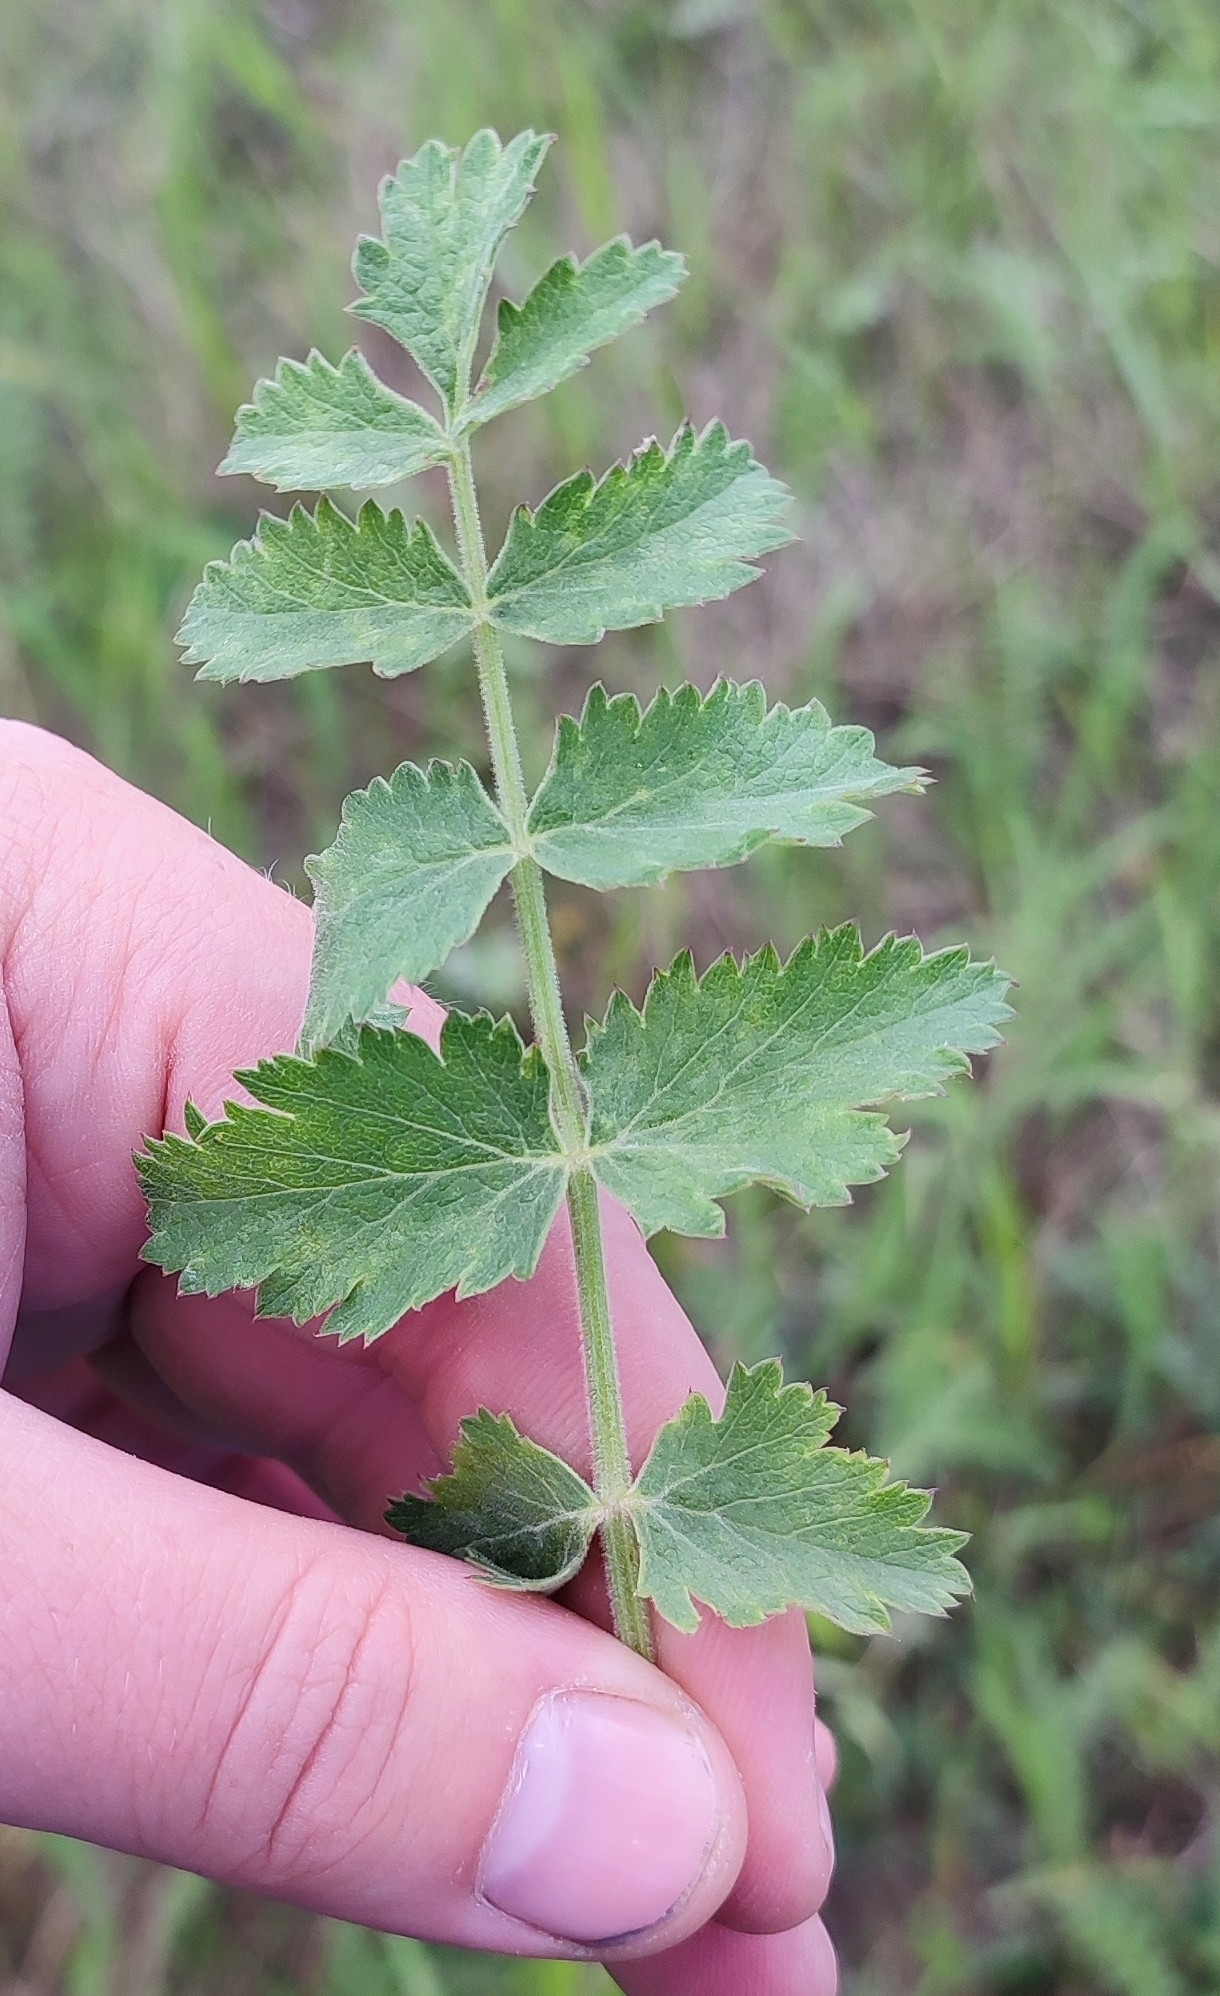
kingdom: Plantae
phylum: Tracheophyta
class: Magnoliopsida
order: Apiales
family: Apiaceae
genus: Pimpinella
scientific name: Pimpinella saxifraga
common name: Burnet-saxifrage
